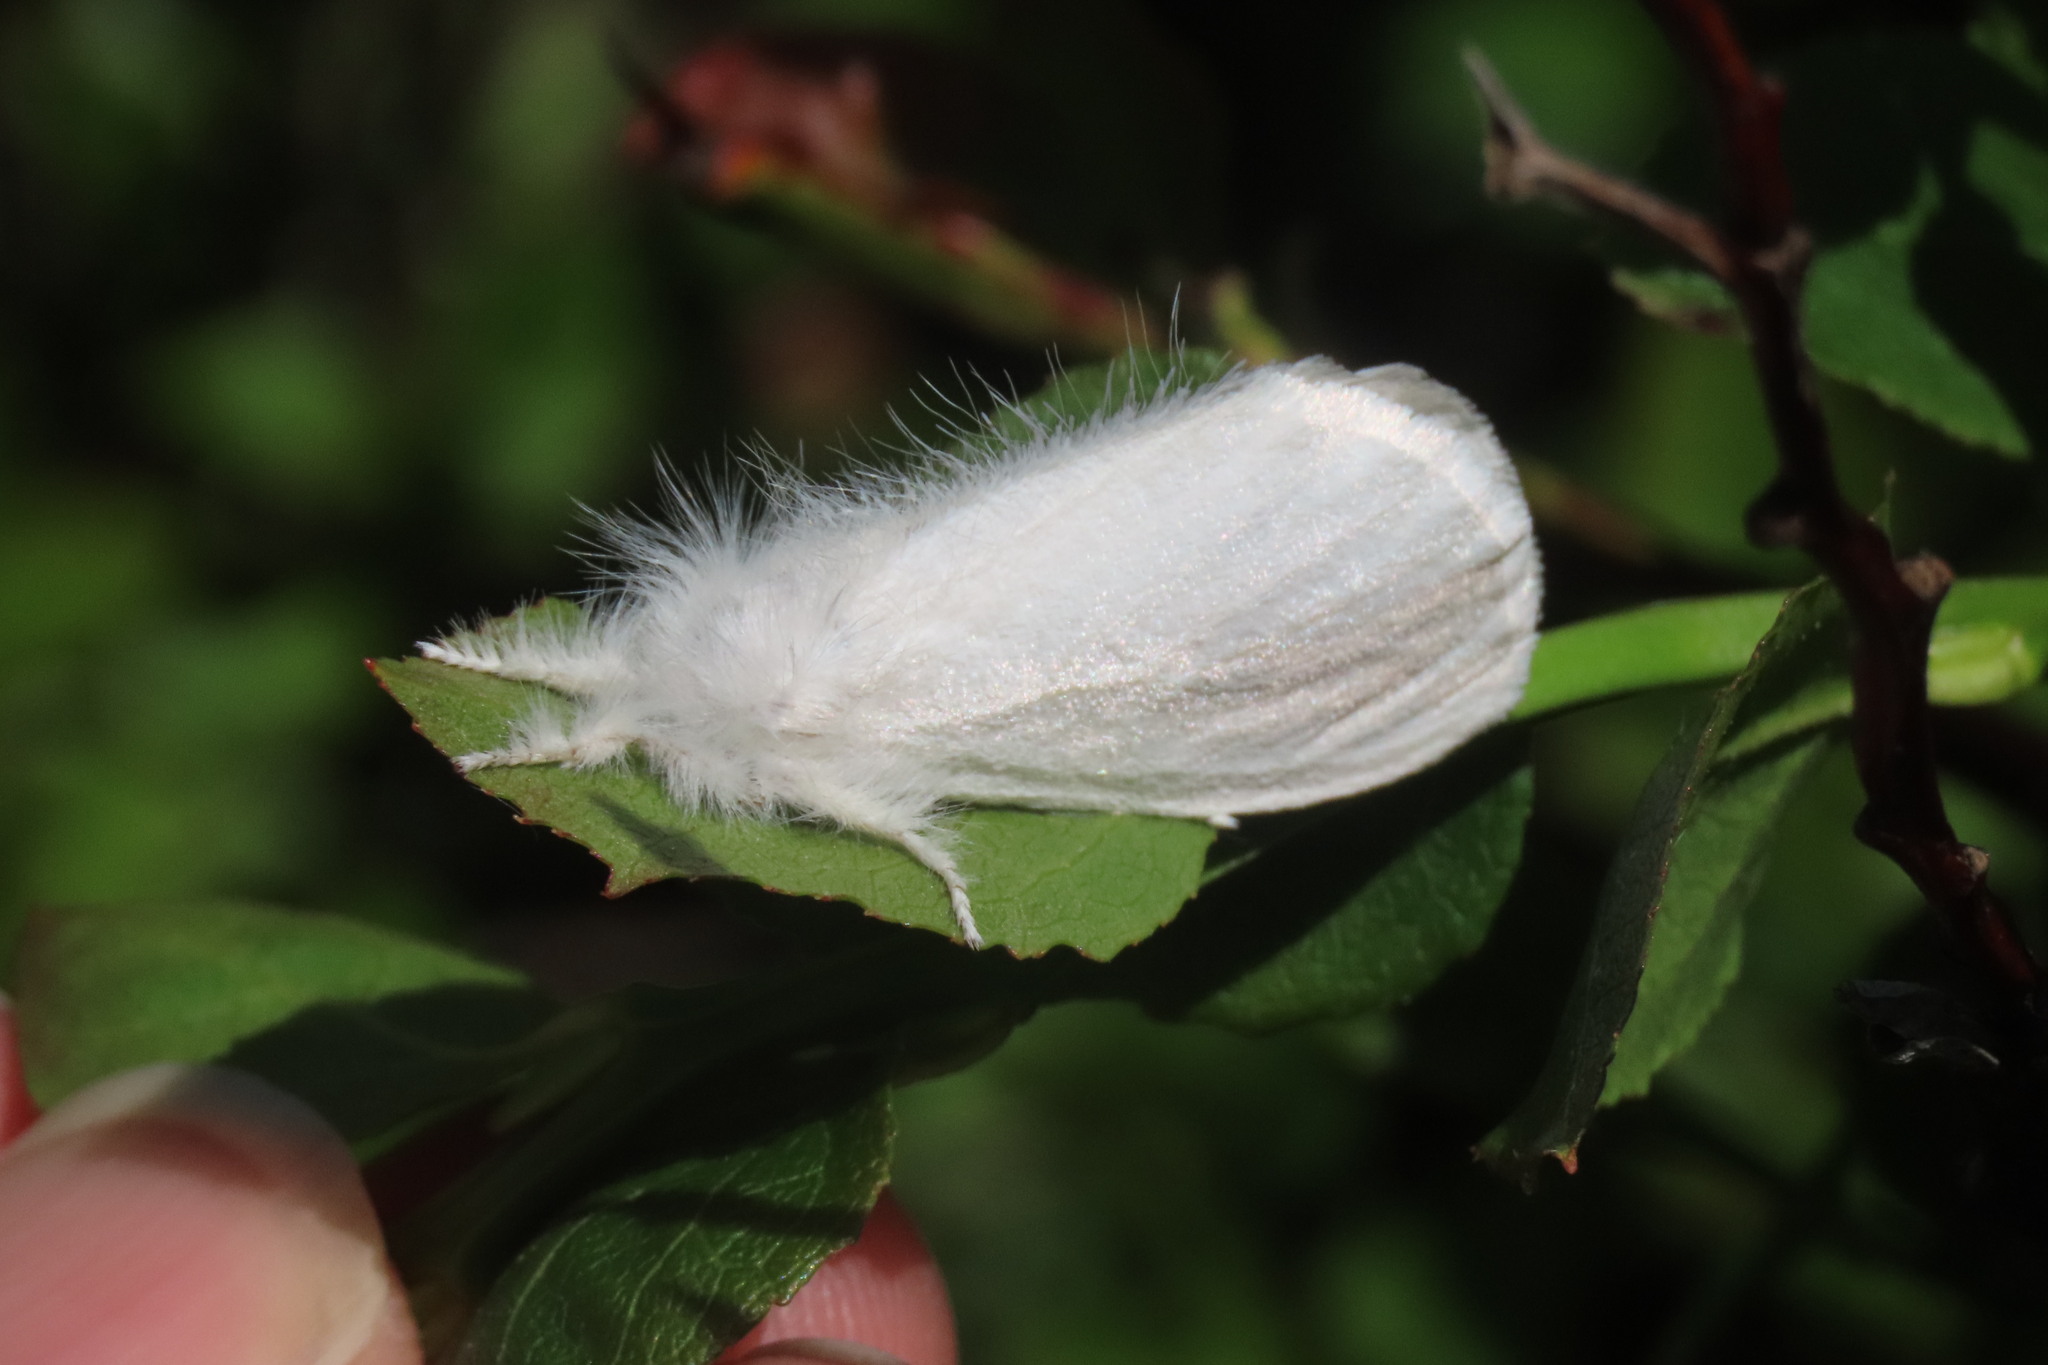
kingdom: Animalia
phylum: Arthropoda
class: Insecta
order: Lepidoptera
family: Erebidae
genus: Sphrageidus
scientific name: Sphrageidus similis
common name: Yellow-tail
